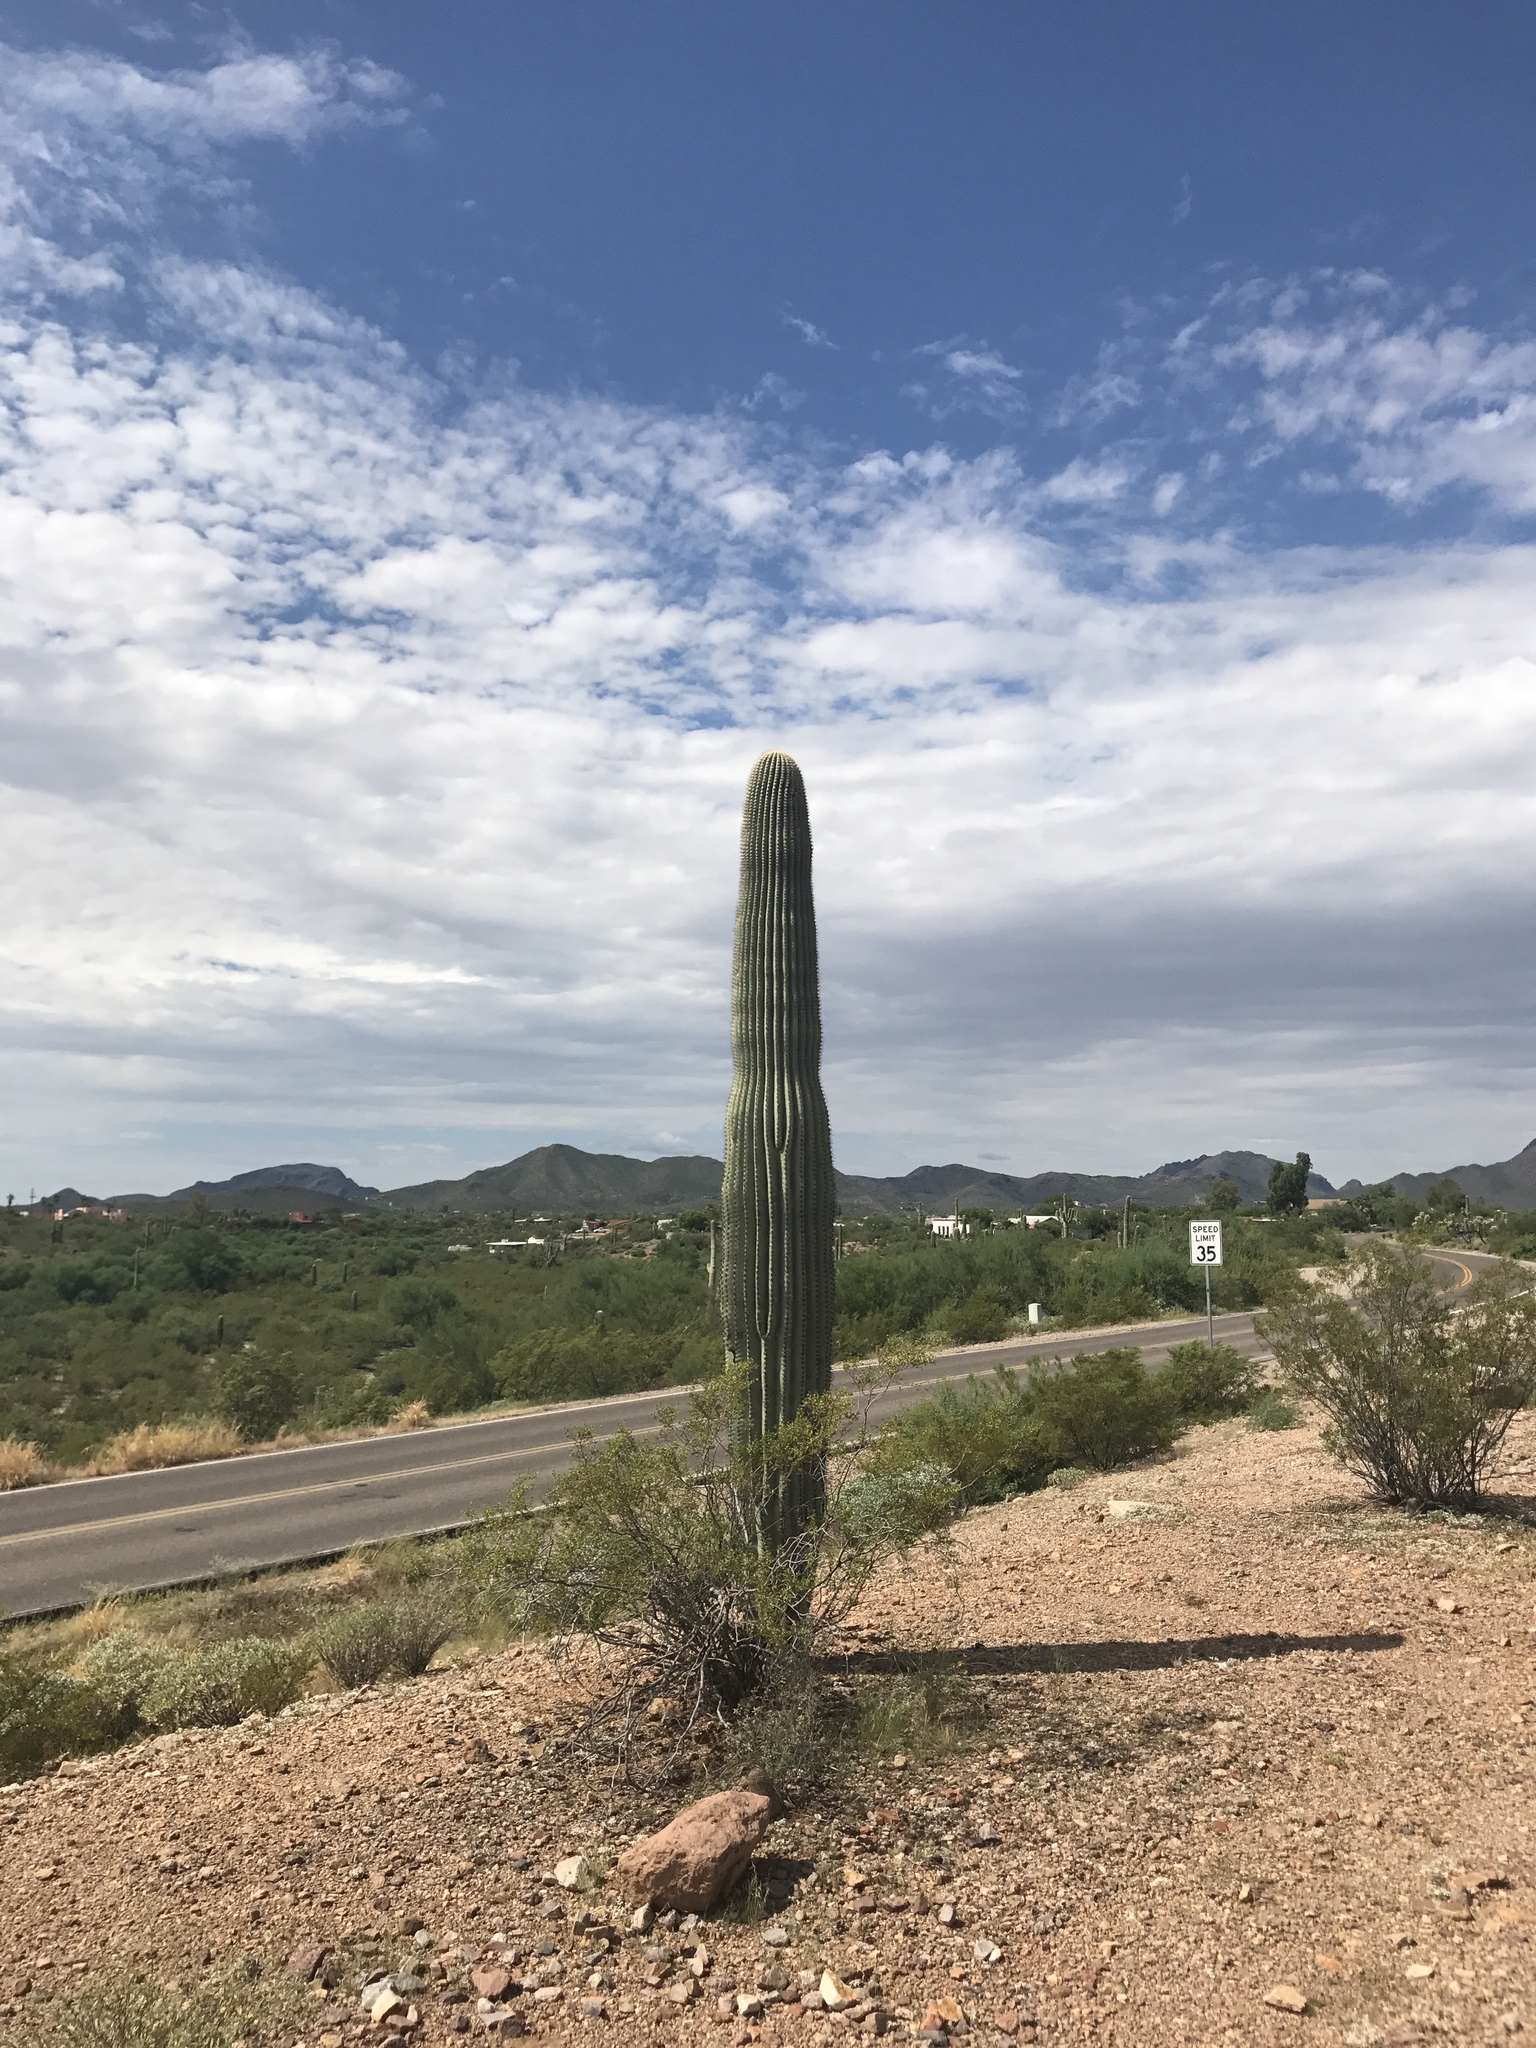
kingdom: Plantae
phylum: Tracheophyta
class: Magnoliopsida
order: Caryophyllales
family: Cactaceae
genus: Carnegiea
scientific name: Carnegiea gigantea
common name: Saguaro
